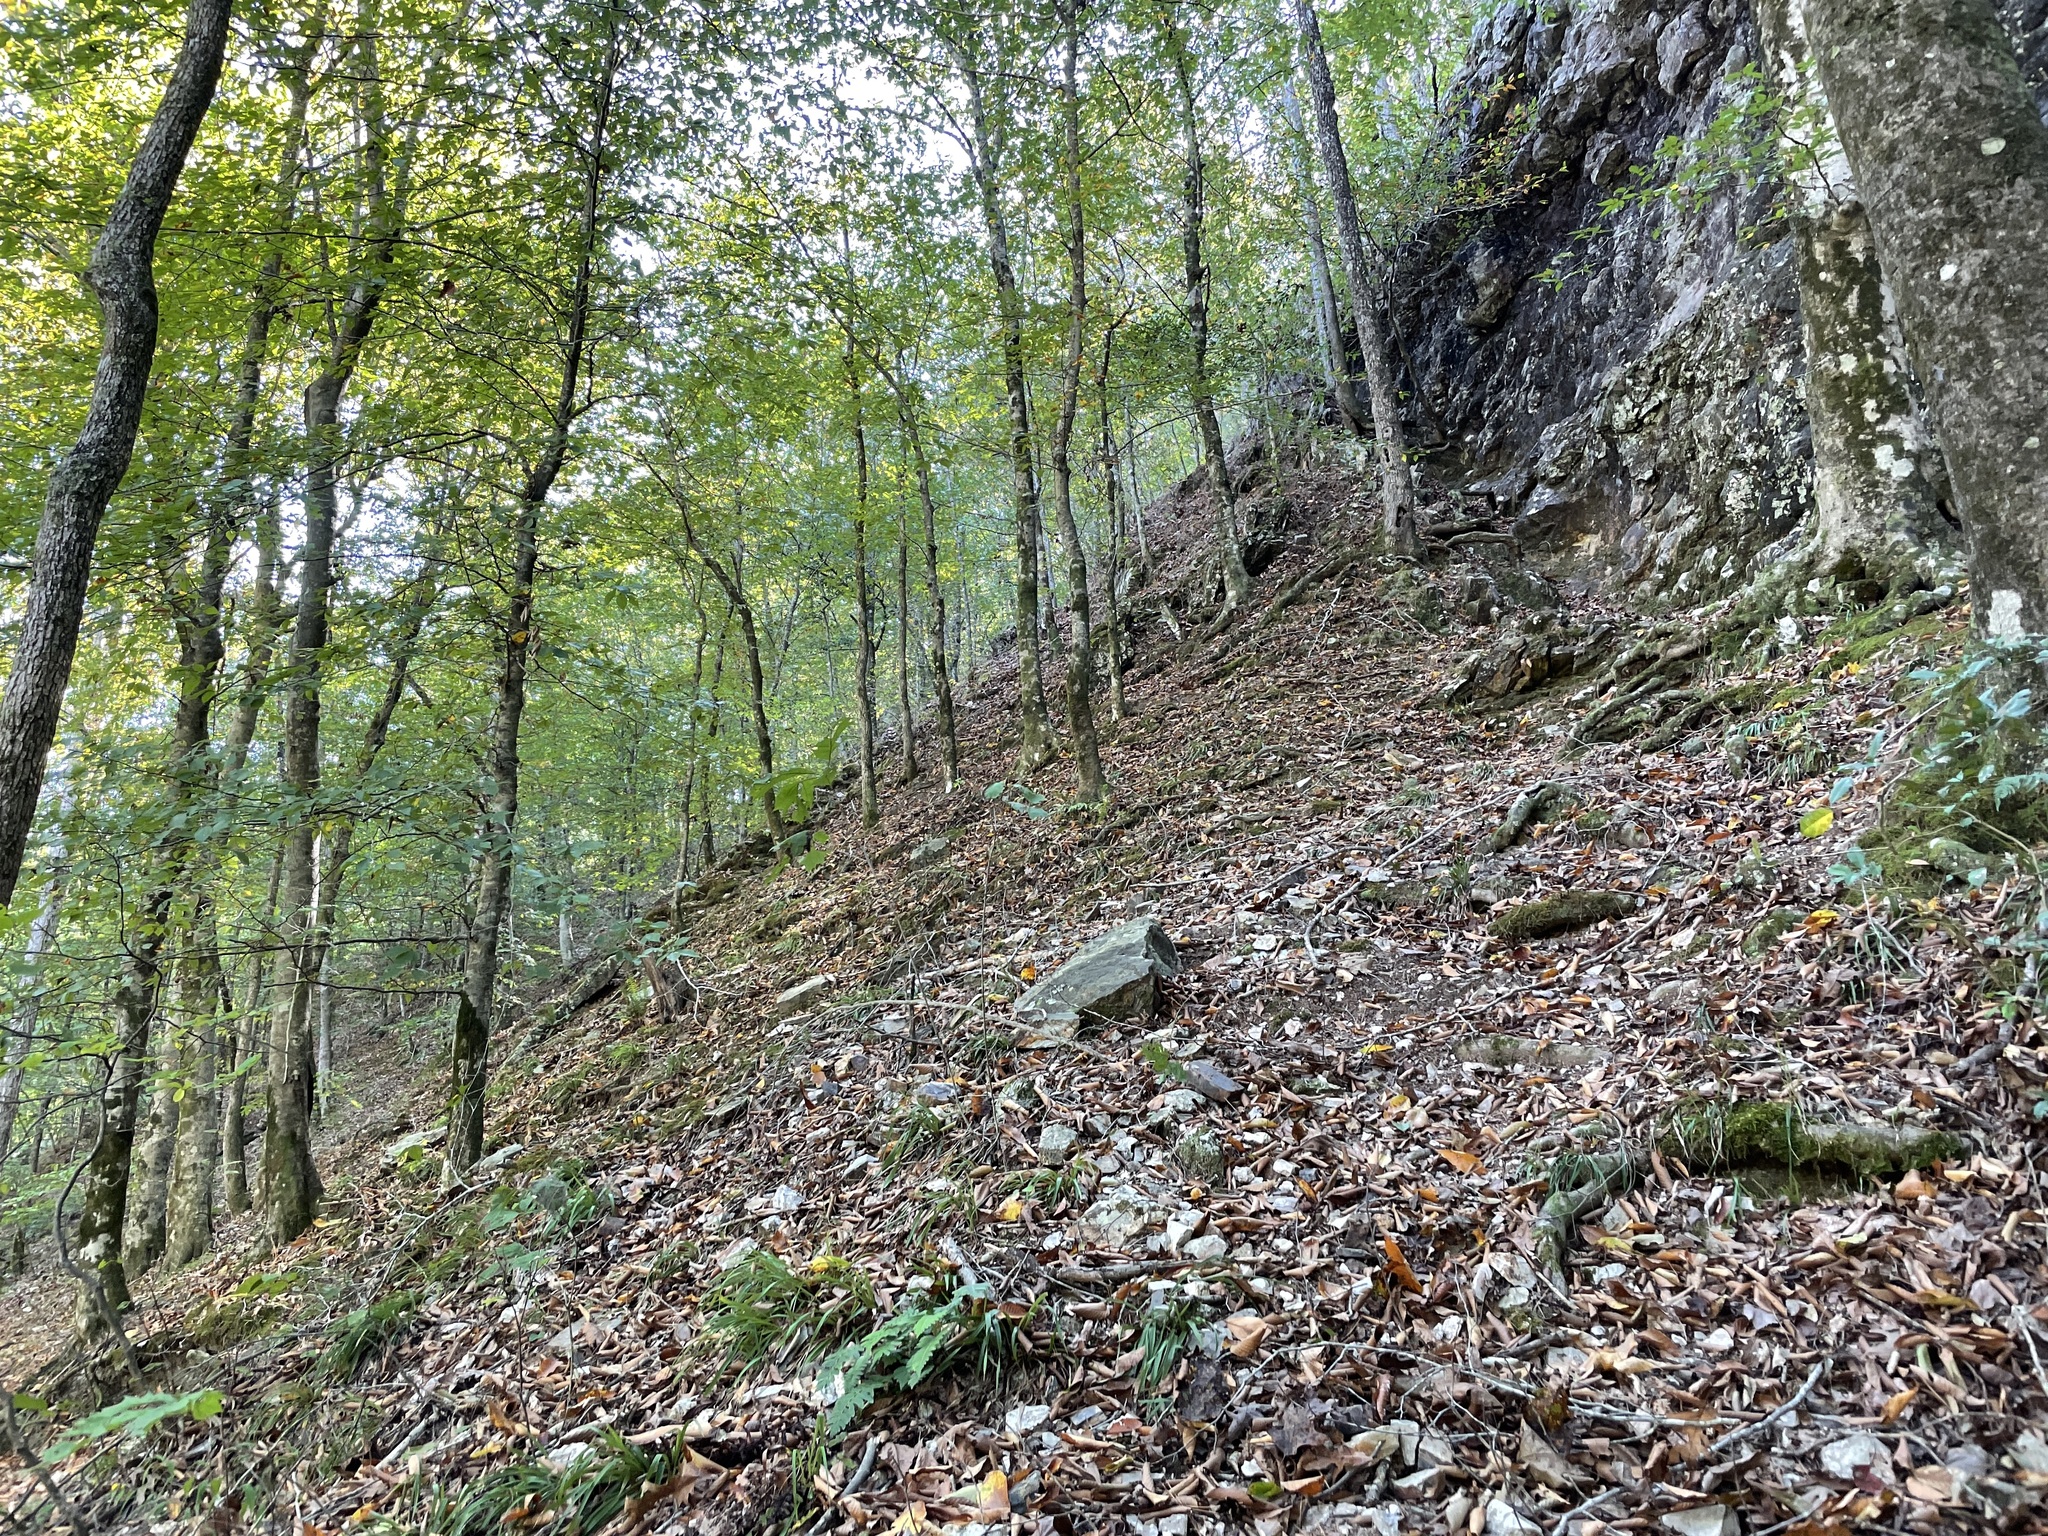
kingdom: Animalia
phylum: Chordata
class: Amphibia
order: Anura
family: Ranidae
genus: Lithobates
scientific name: Lithobates palustris
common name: Pickerel frog
